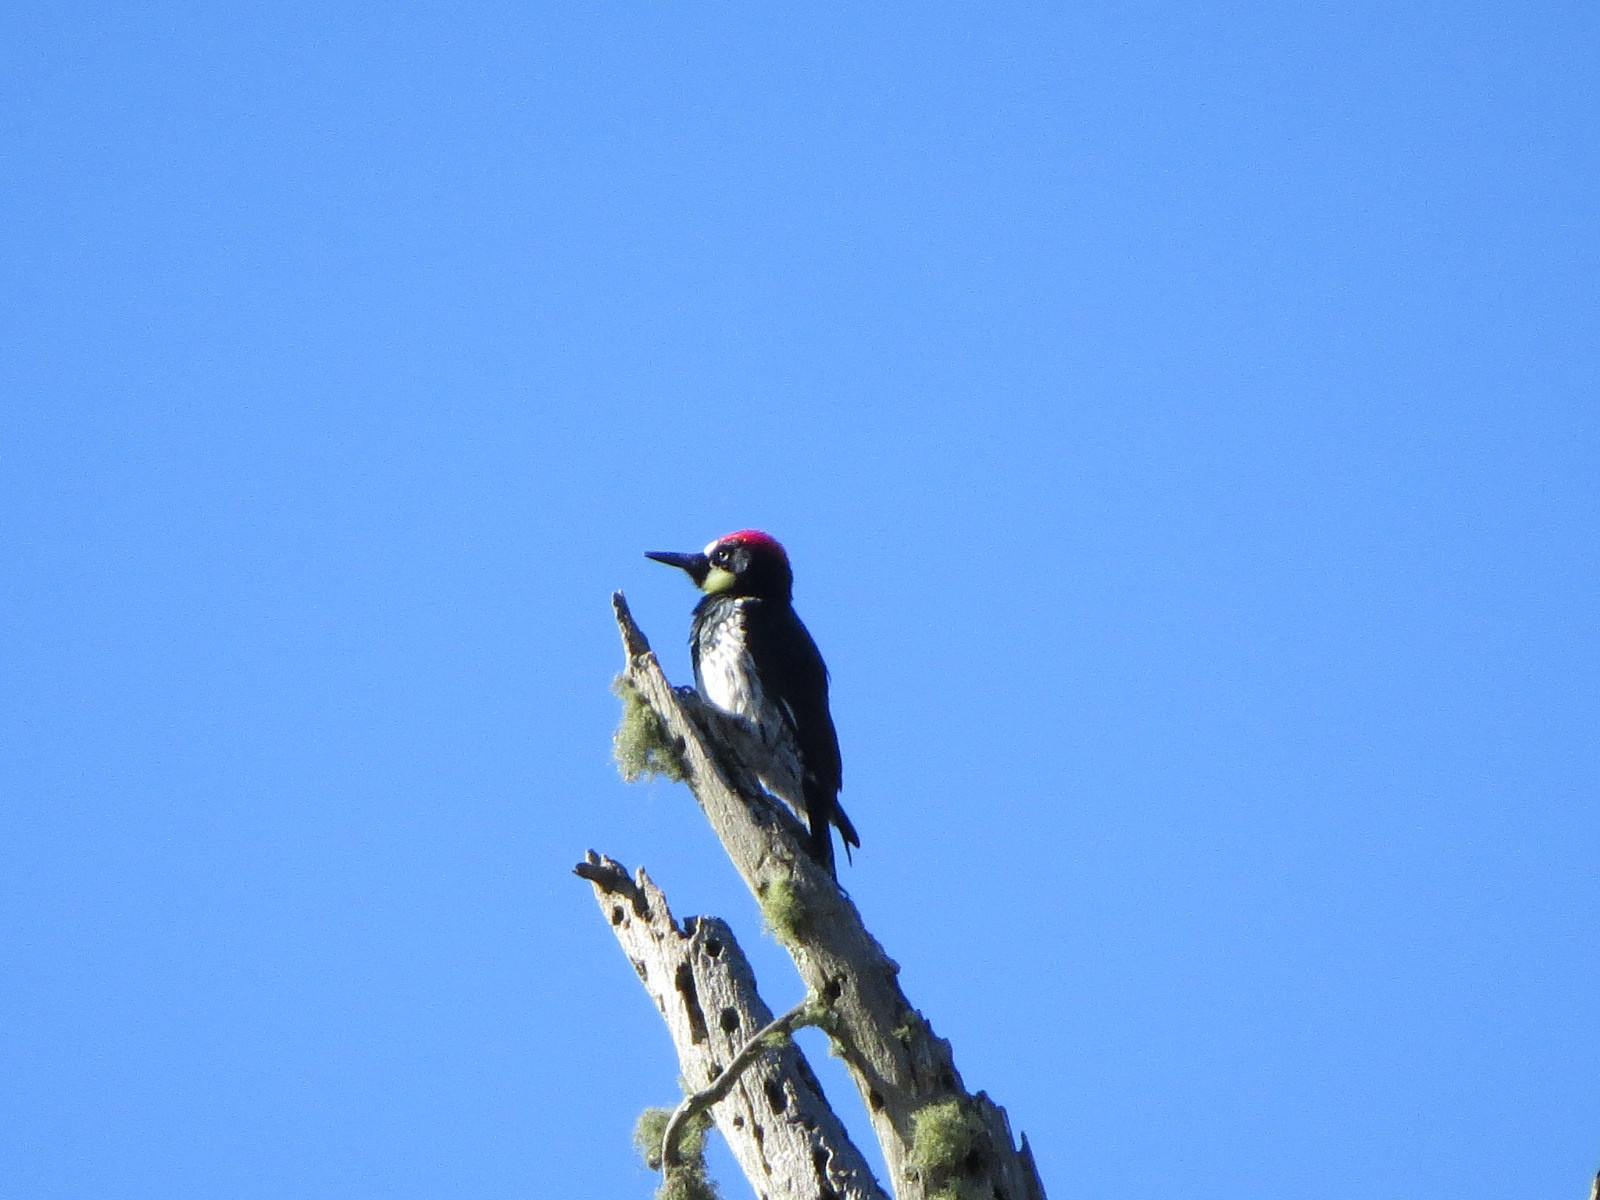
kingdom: Animalia
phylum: Chordata
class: Aves
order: Piciformes
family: Picidae
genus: Melanerpes
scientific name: Melanerpes formicivorus
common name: Acorn woodpecker
